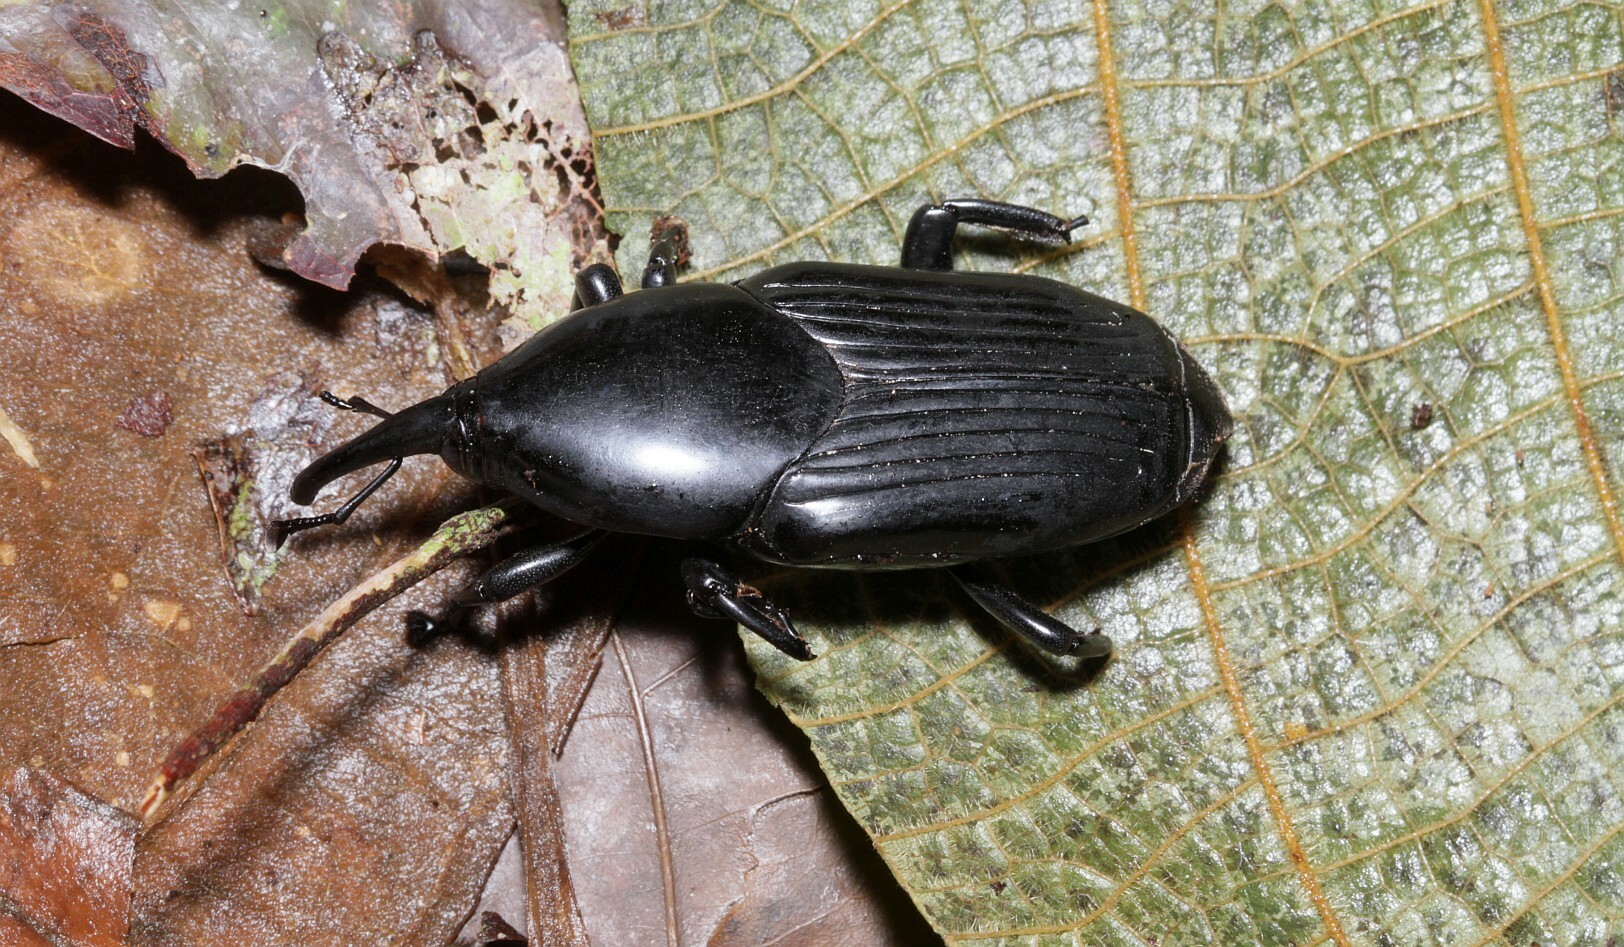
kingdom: Animalia
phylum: Arthropoda
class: Insecta
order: Coleoptera
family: Dryophthoridae
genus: Dynamis
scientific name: Dynamis borassi
